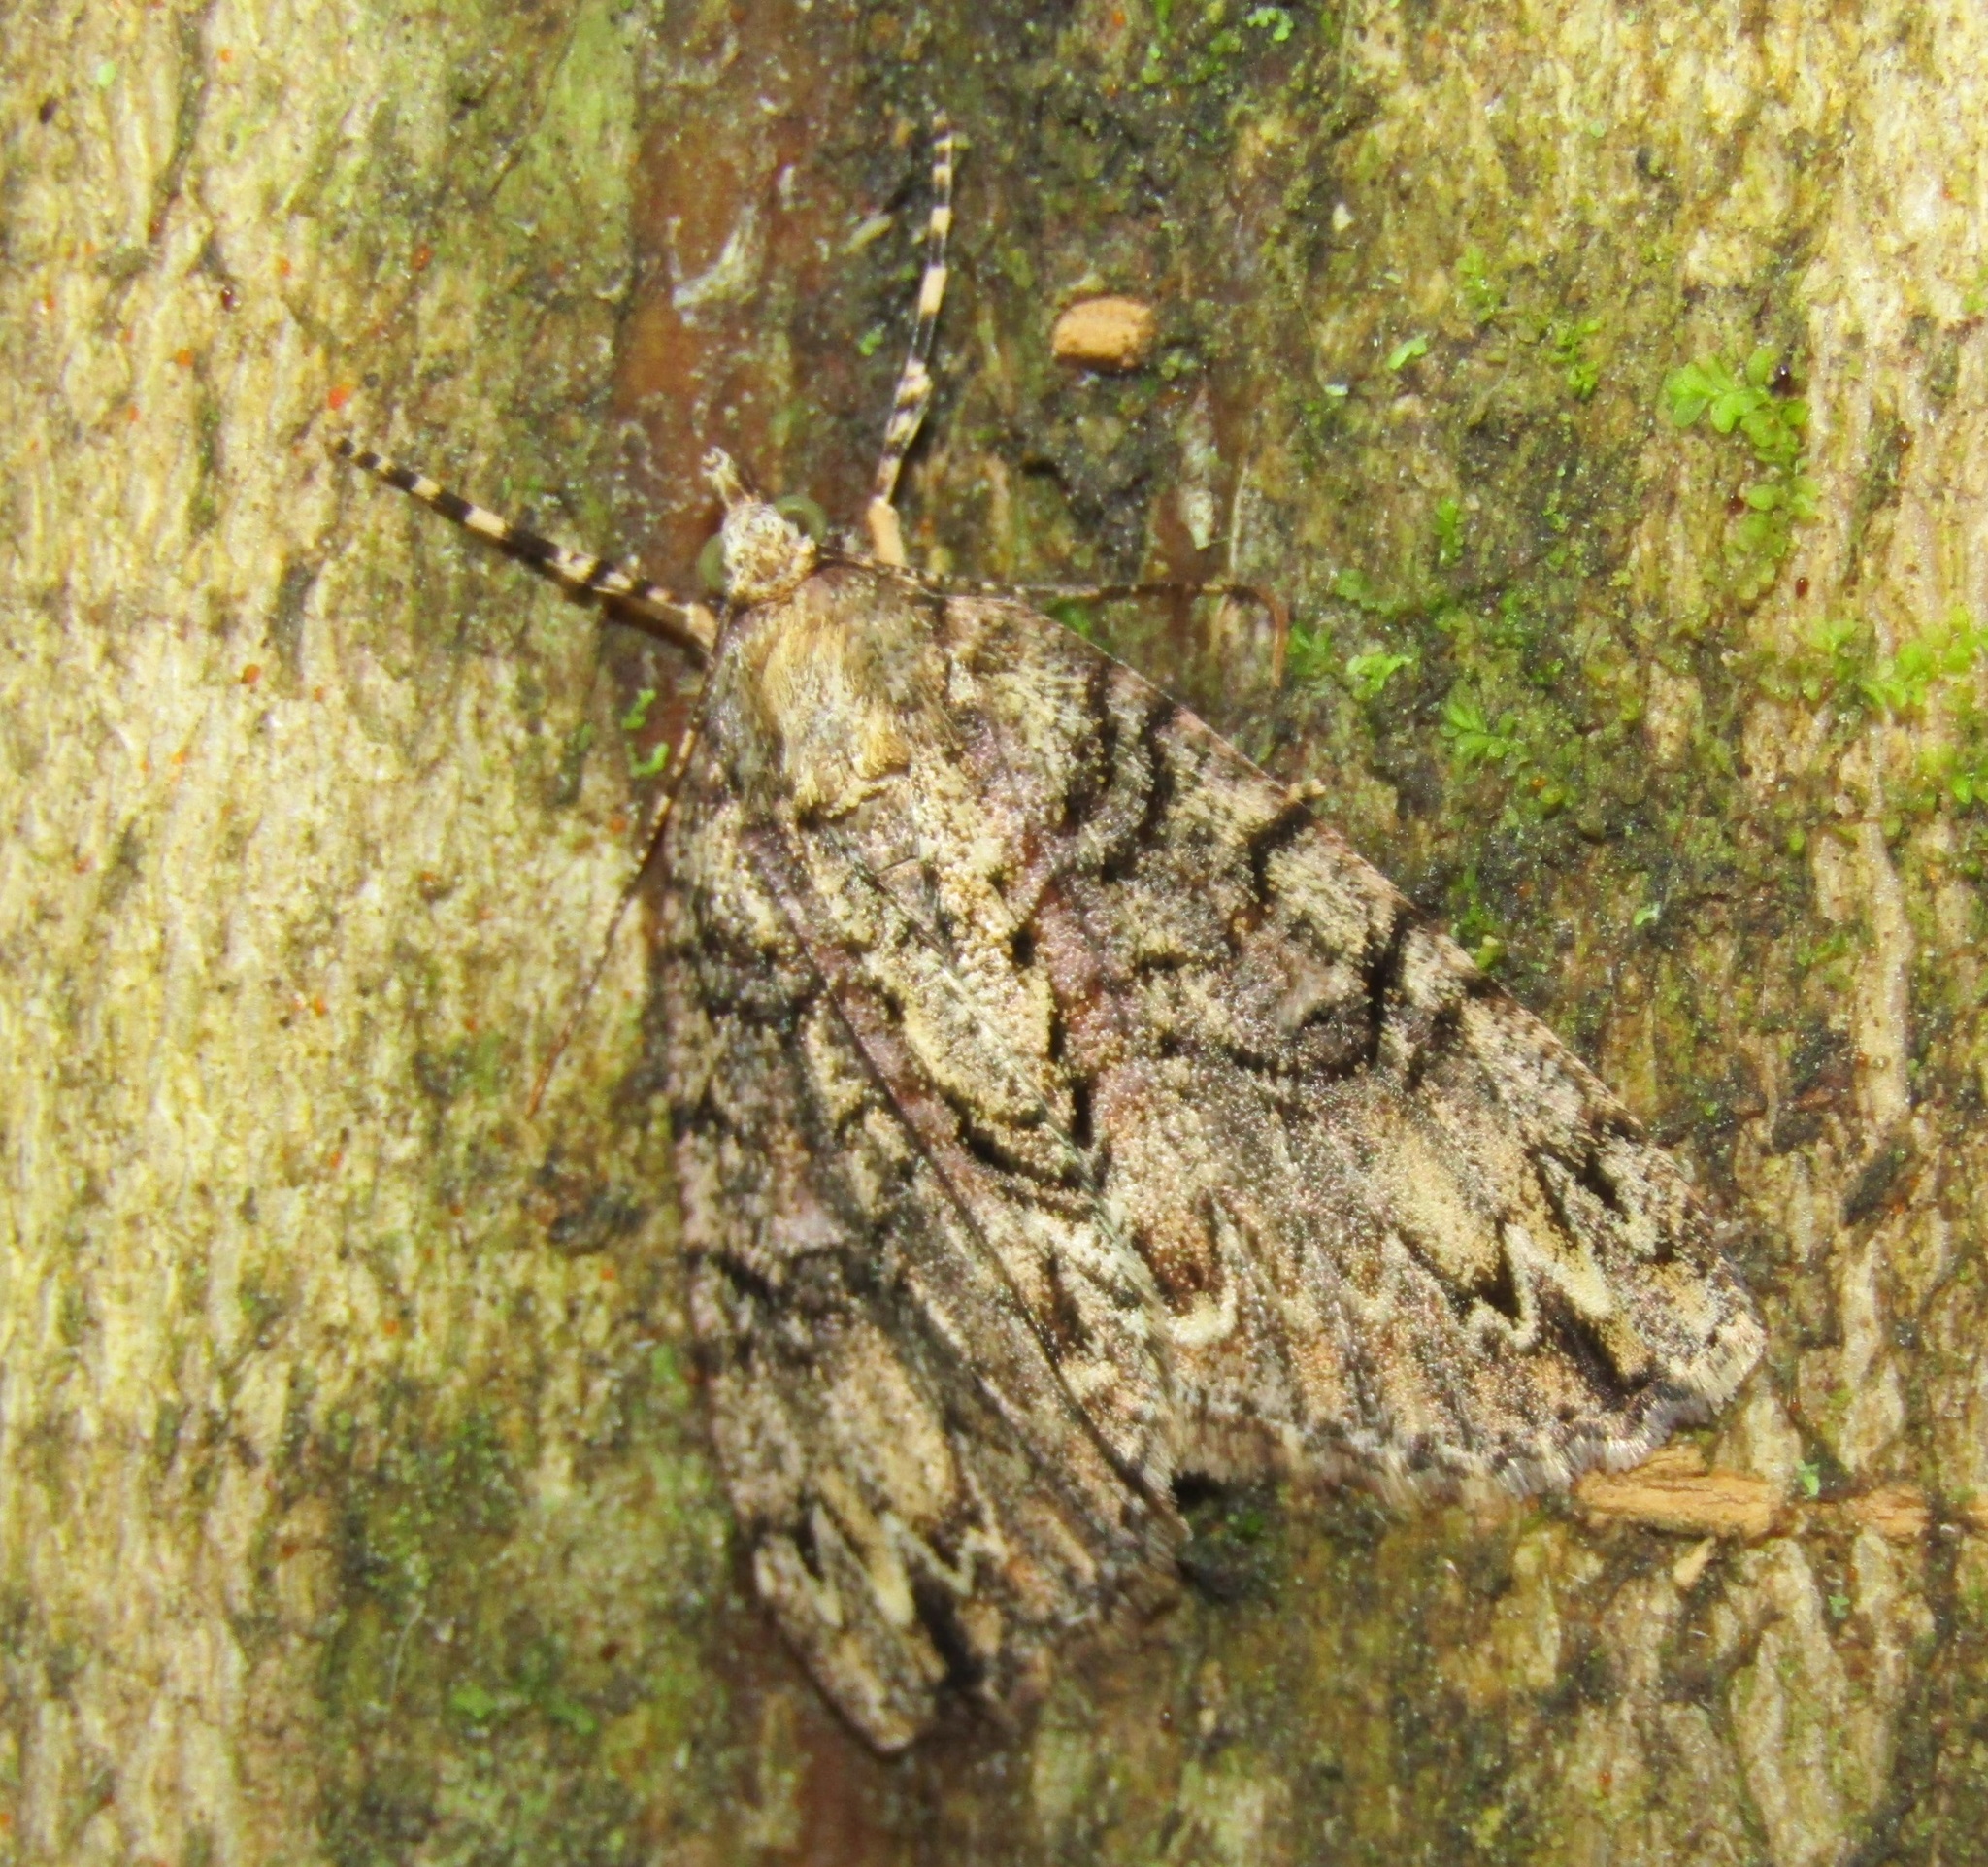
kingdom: Animalia
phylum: Arthropoda
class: Insecta
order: Lepidoptera
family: Geometridae
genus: Pseudocoremia
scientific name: Pseudocoremia suavis
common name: Common forest looper
